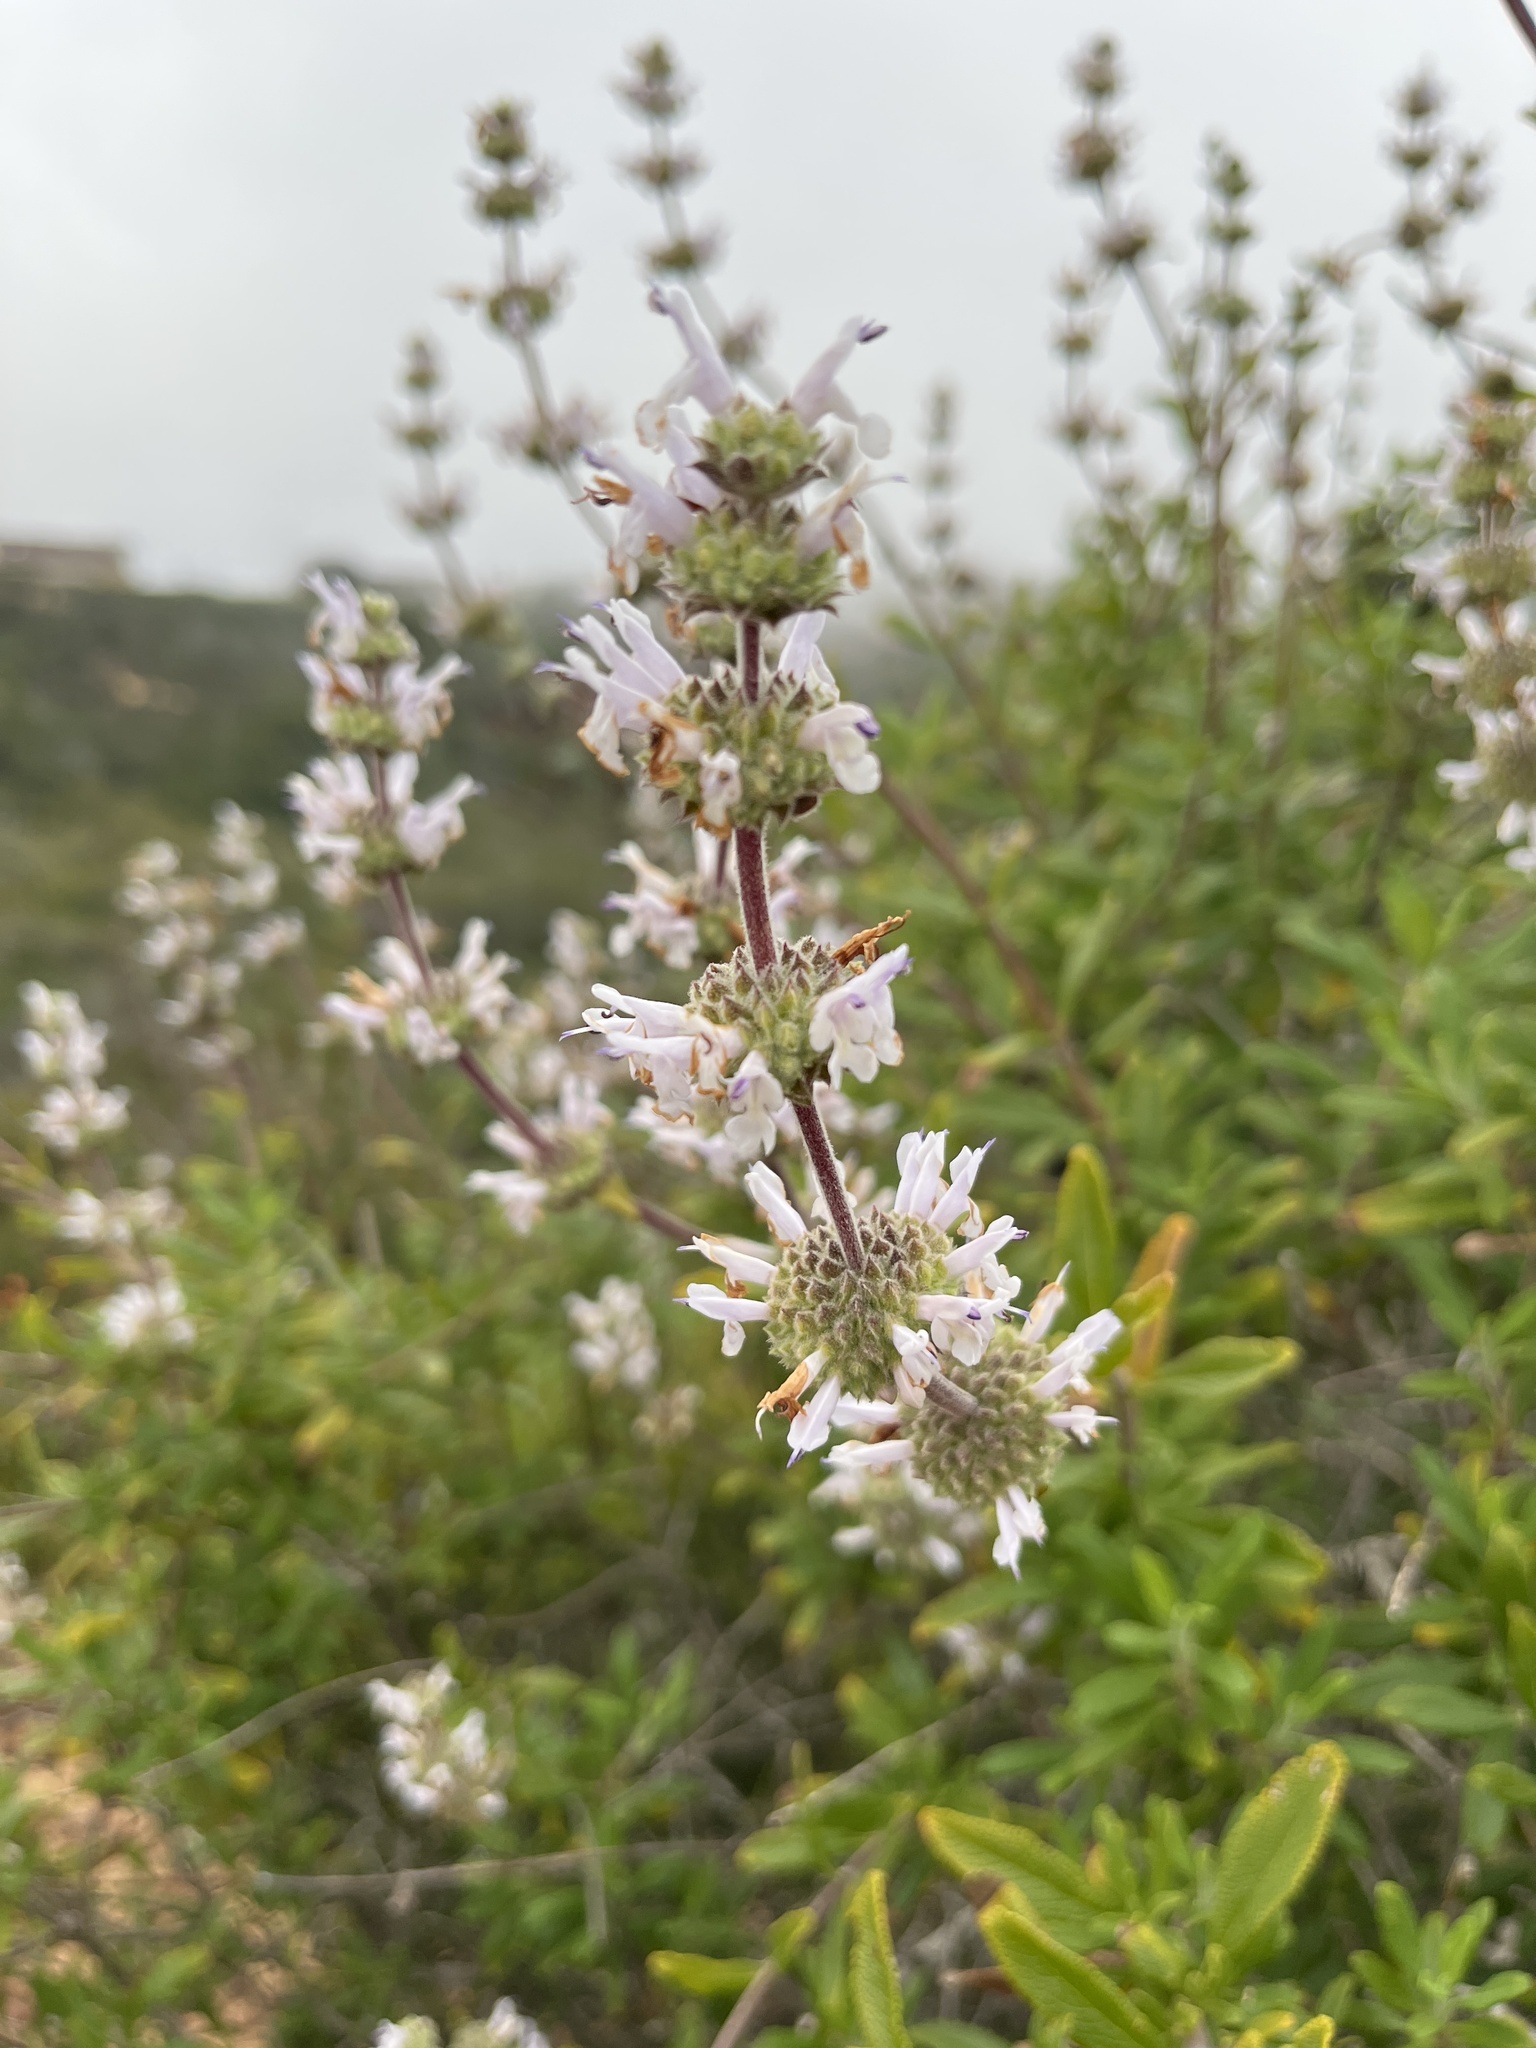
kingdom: Plantae
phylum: Tracheophyta
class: Magnoliopsida
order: Lamiales
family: Lamiaceae
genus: Salvia
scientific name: Salvia mellifera
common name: Black sage
